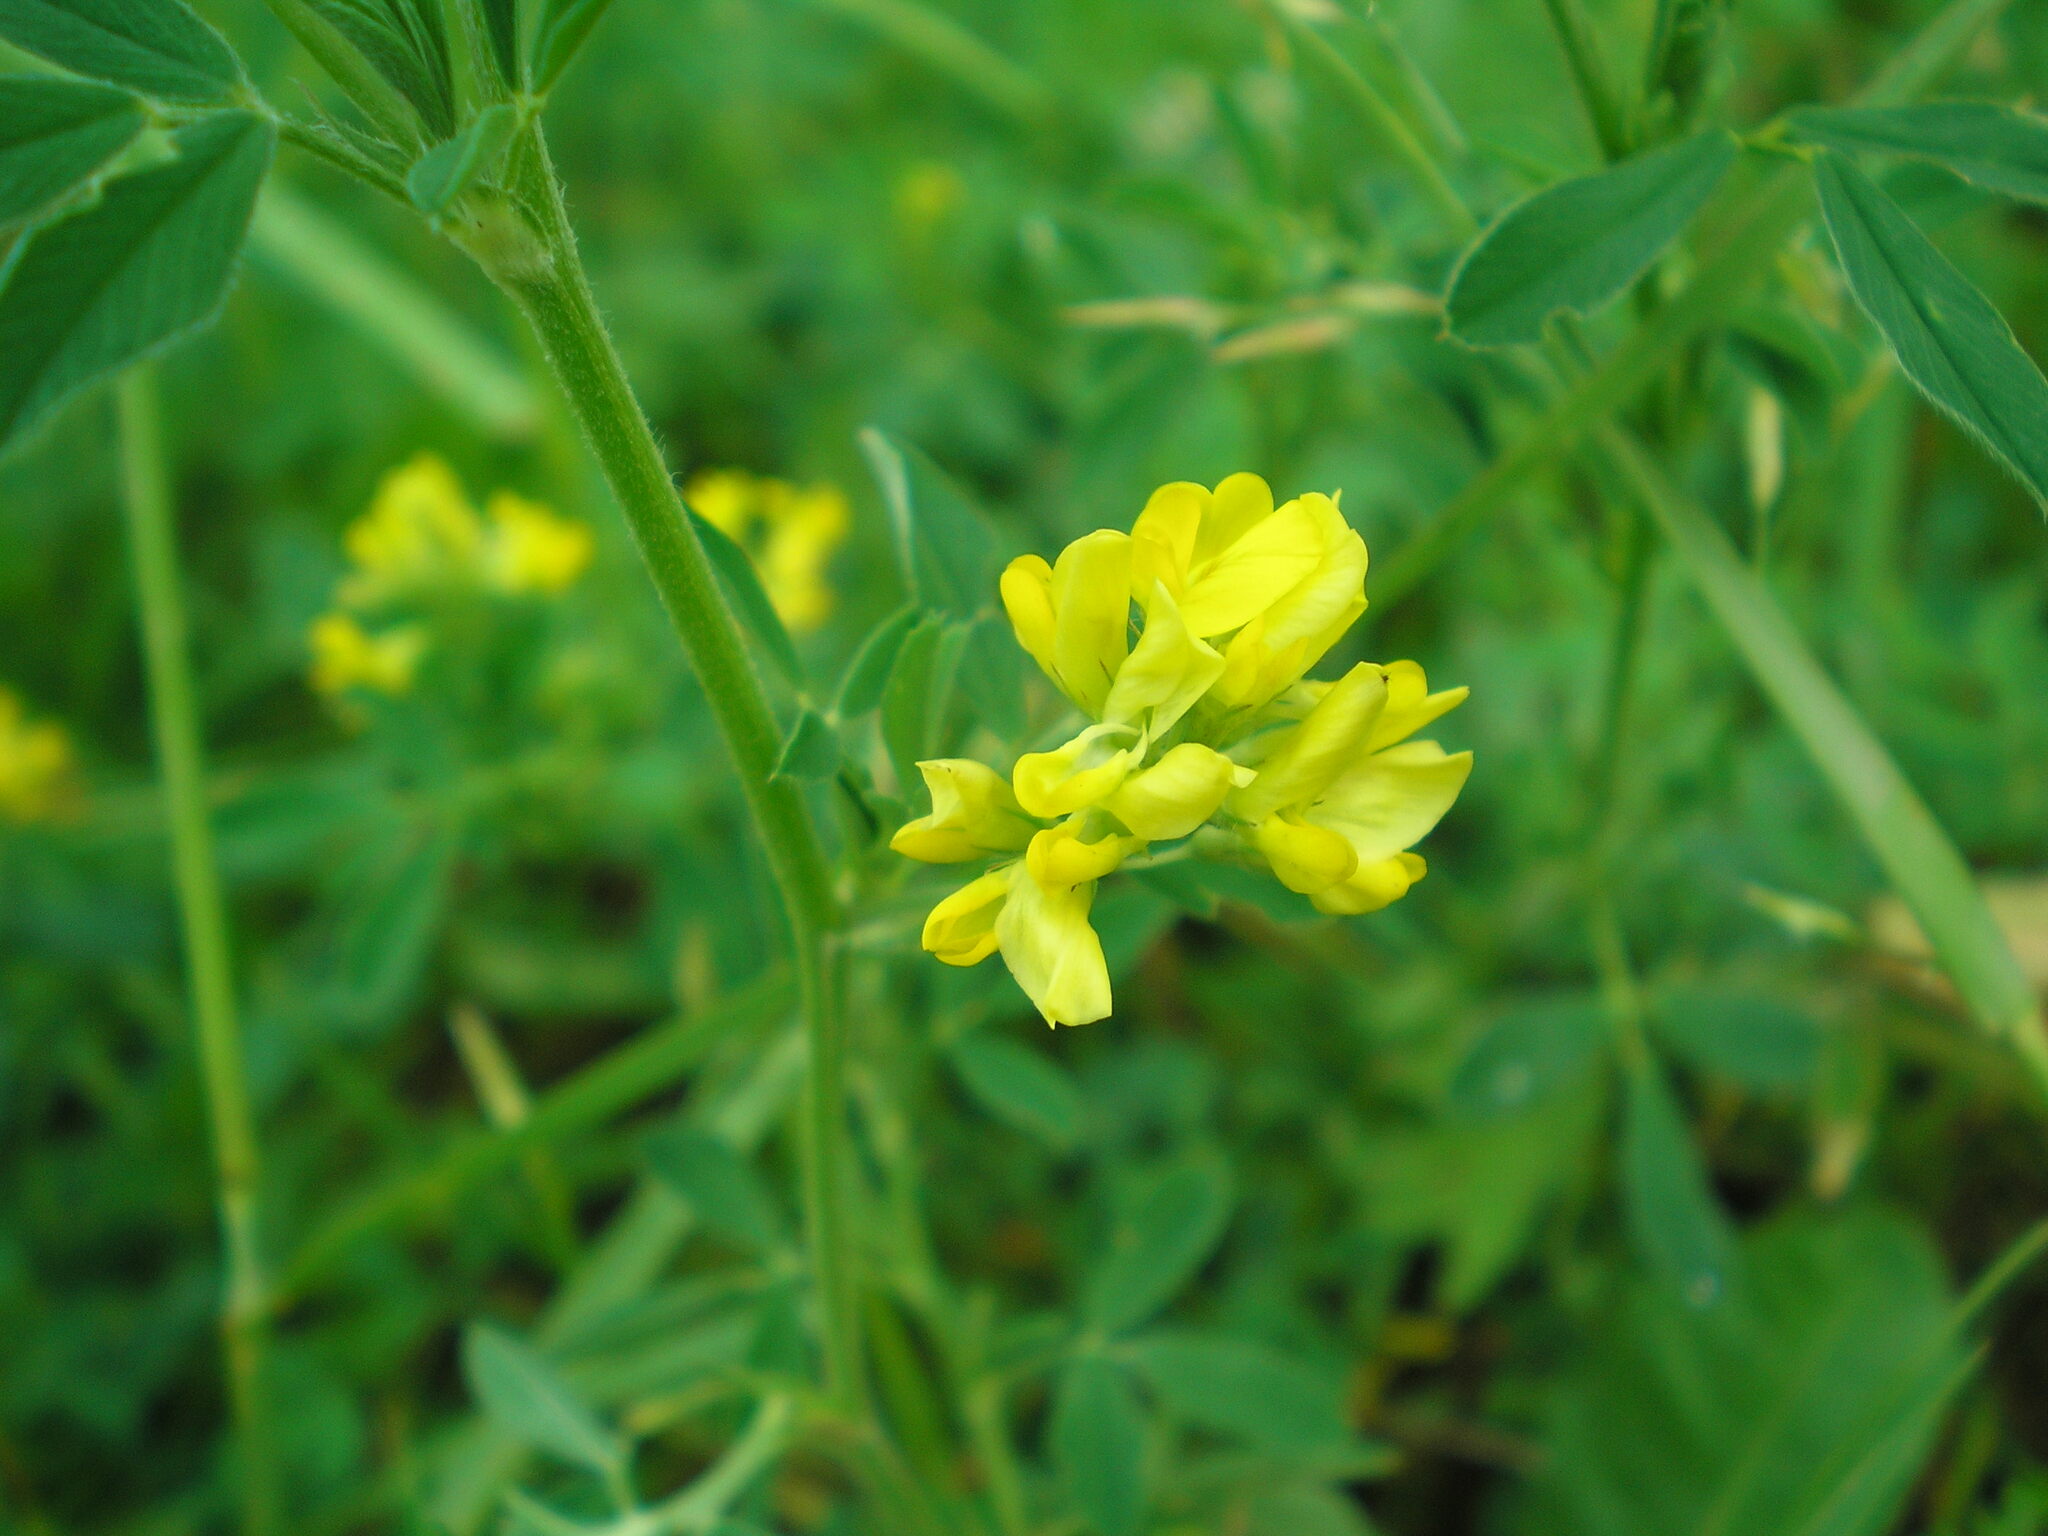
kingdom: Plantae
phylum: Tracheophyta
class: Magnoliopsida
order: Fabales
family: Fabaceae
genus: Medicago
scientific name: Medicago falcata
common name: Sickle medick
